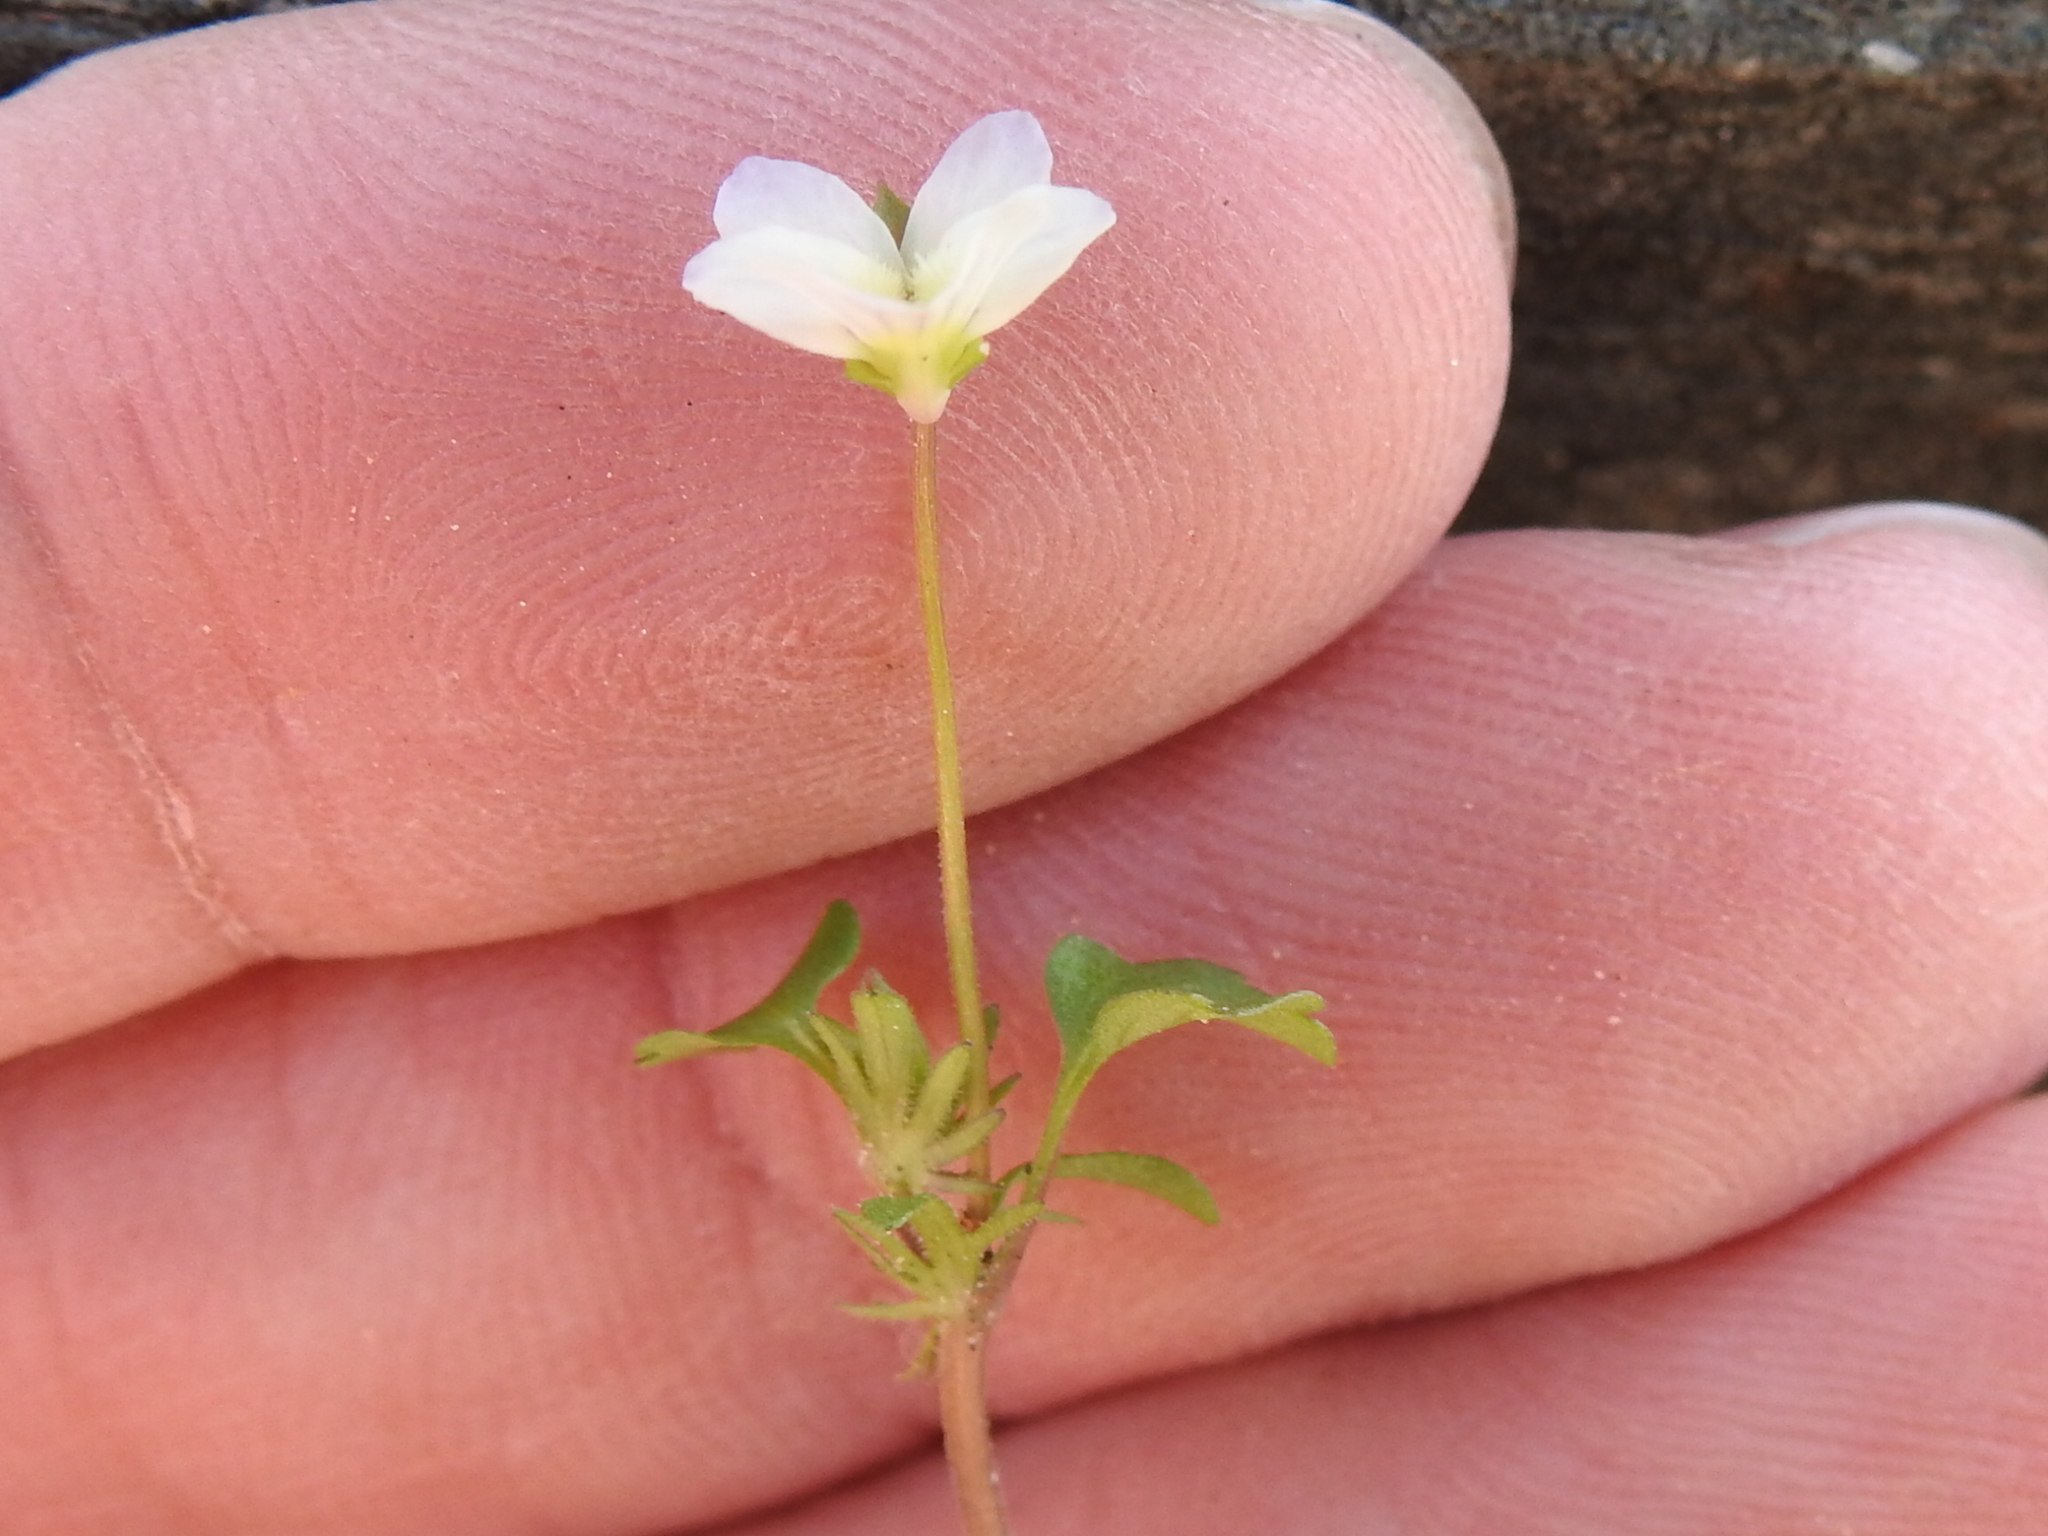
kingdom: Plantae
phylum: Tracheophyta
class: Magnoliopsida
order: Malpighiales
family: Violaceae
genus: Viola
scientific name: Viola rafinesquei
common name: American field pansy
